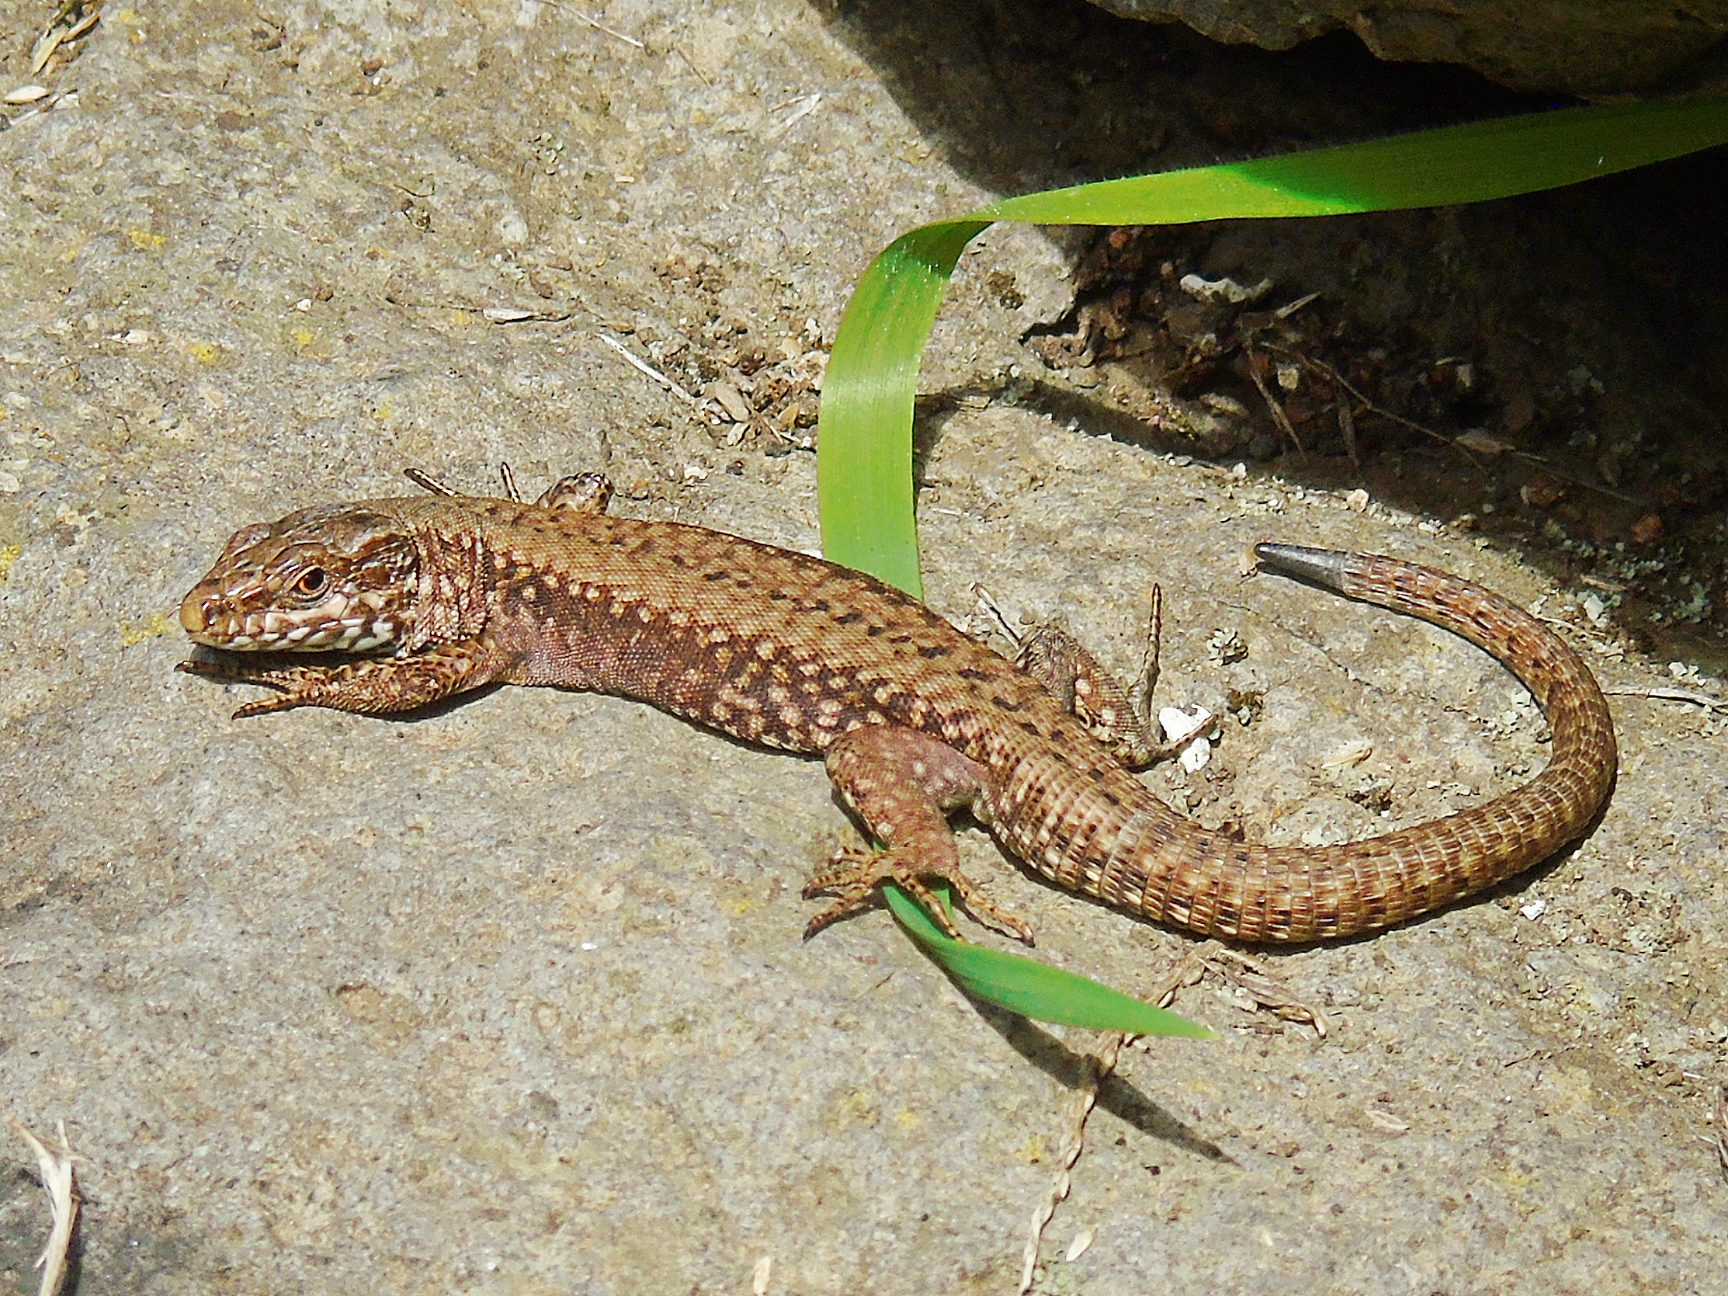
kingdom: Animalia
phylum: Chordata
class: Squamata
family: Lacertidae
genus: Podarcis
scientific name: Podarcis muralis
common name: Common wall lizard
